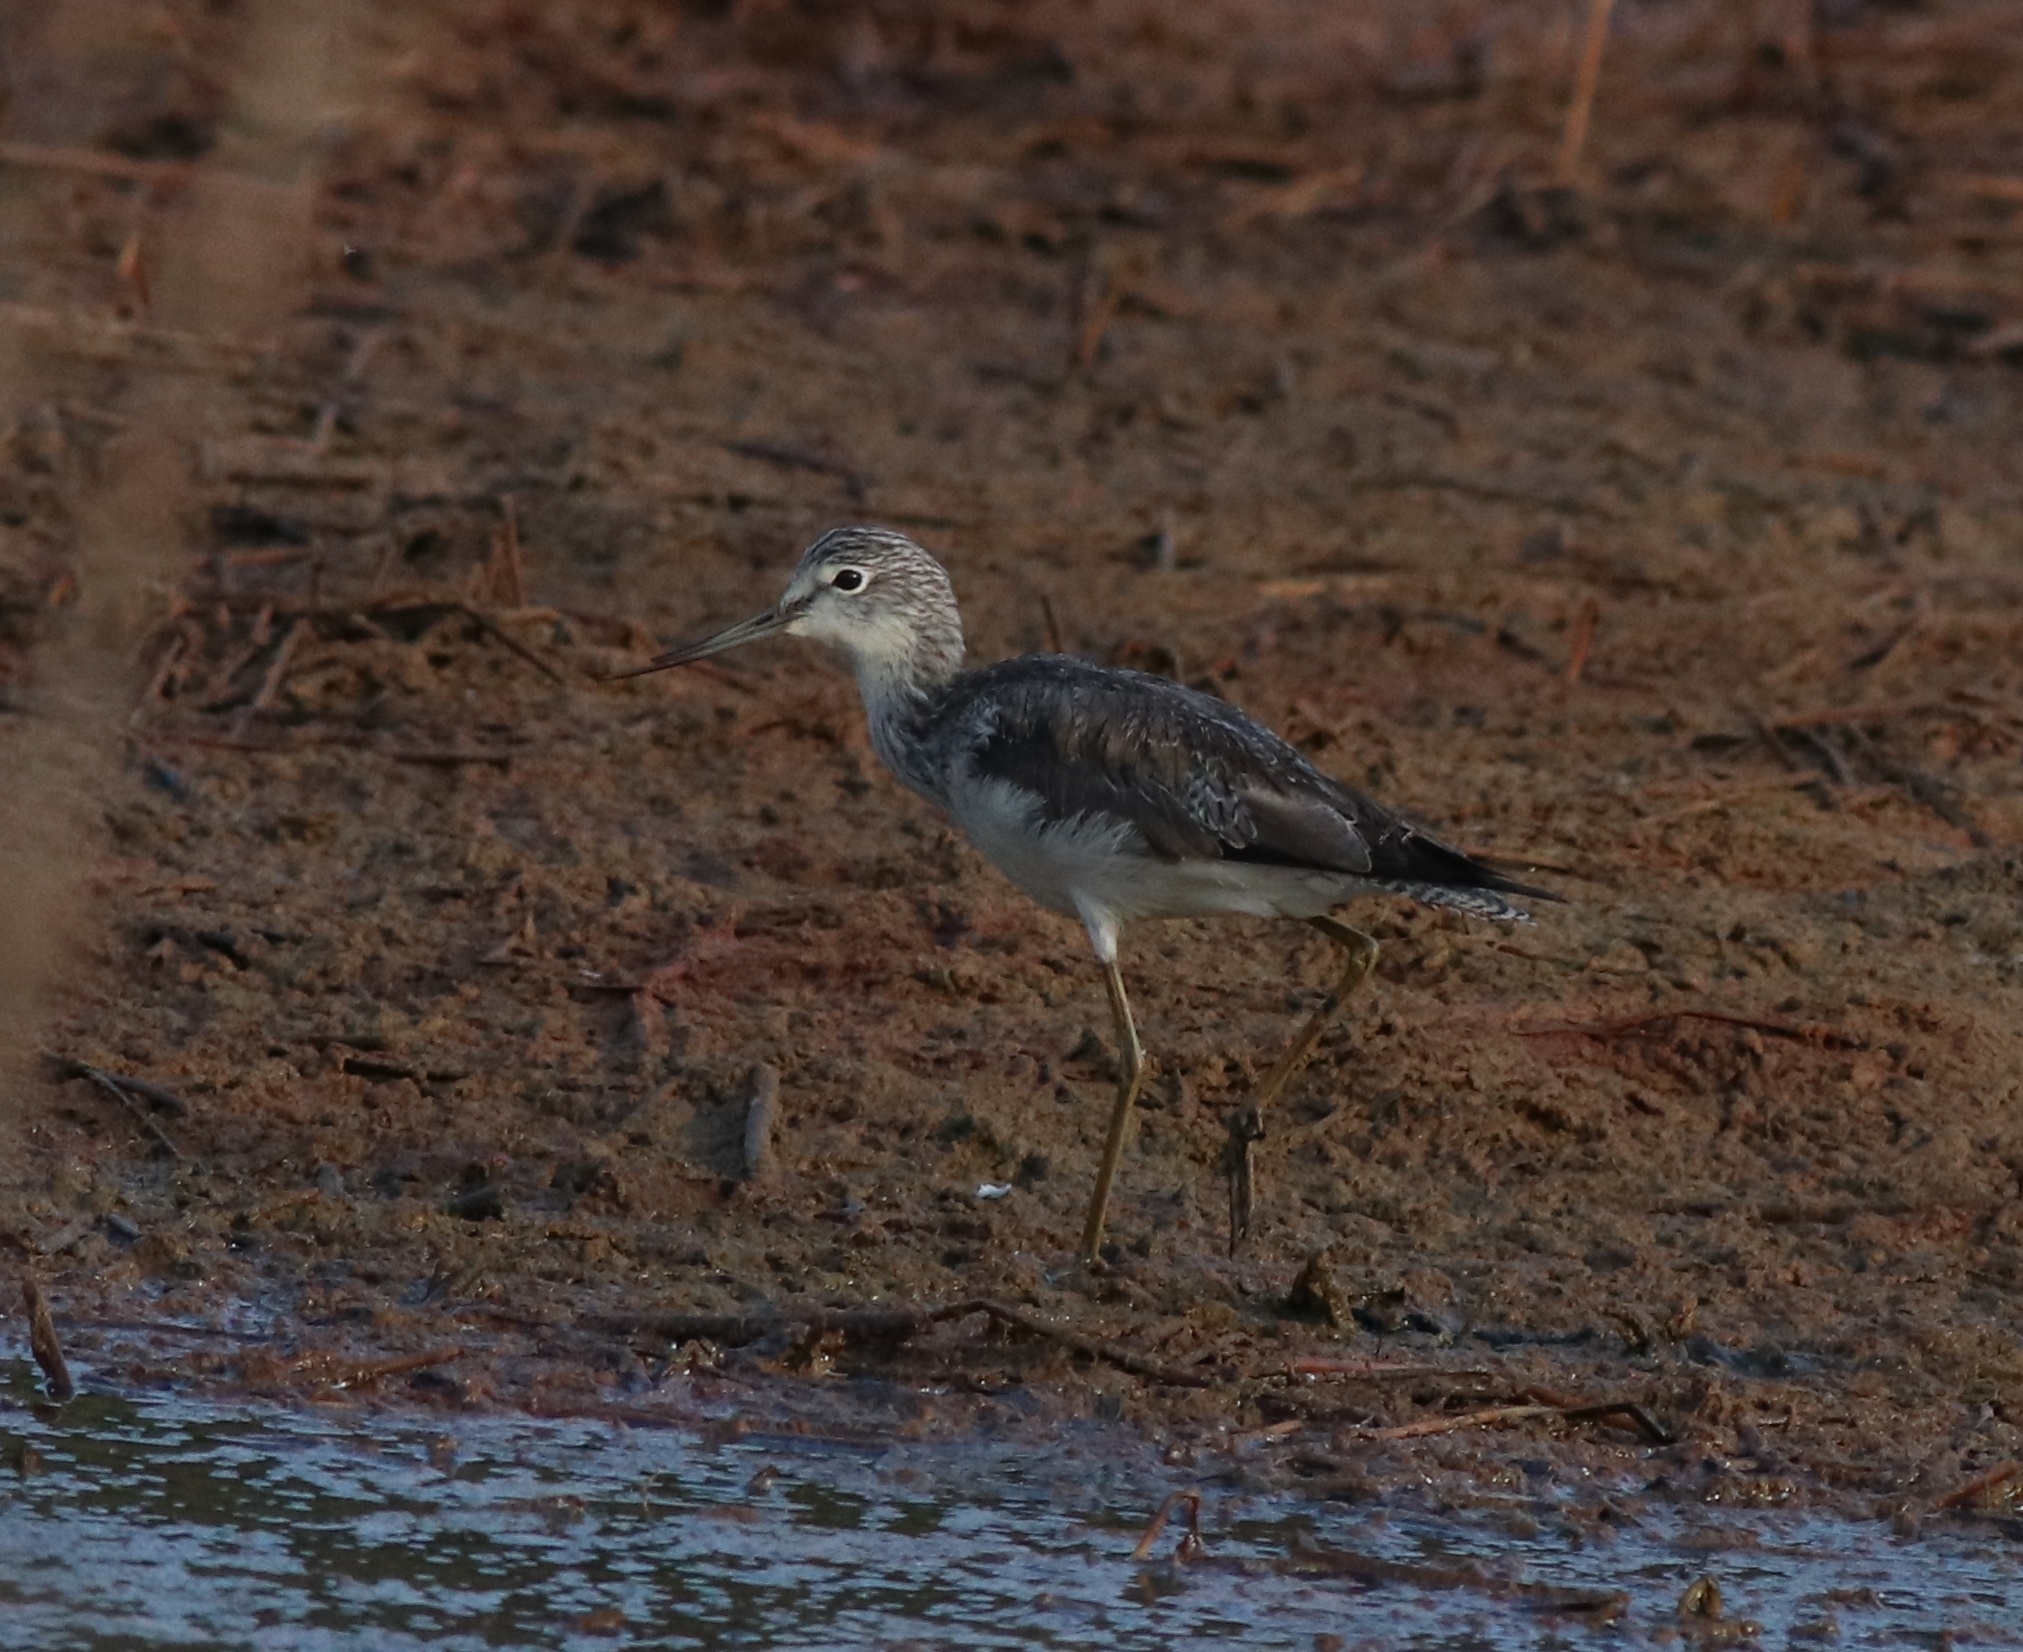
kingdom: Animalia
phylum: Chordata
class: Aves
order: Charadriiformes
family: Scolopacidae
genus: Tringa
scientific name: Tringa nebularia
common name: Common greenshank
